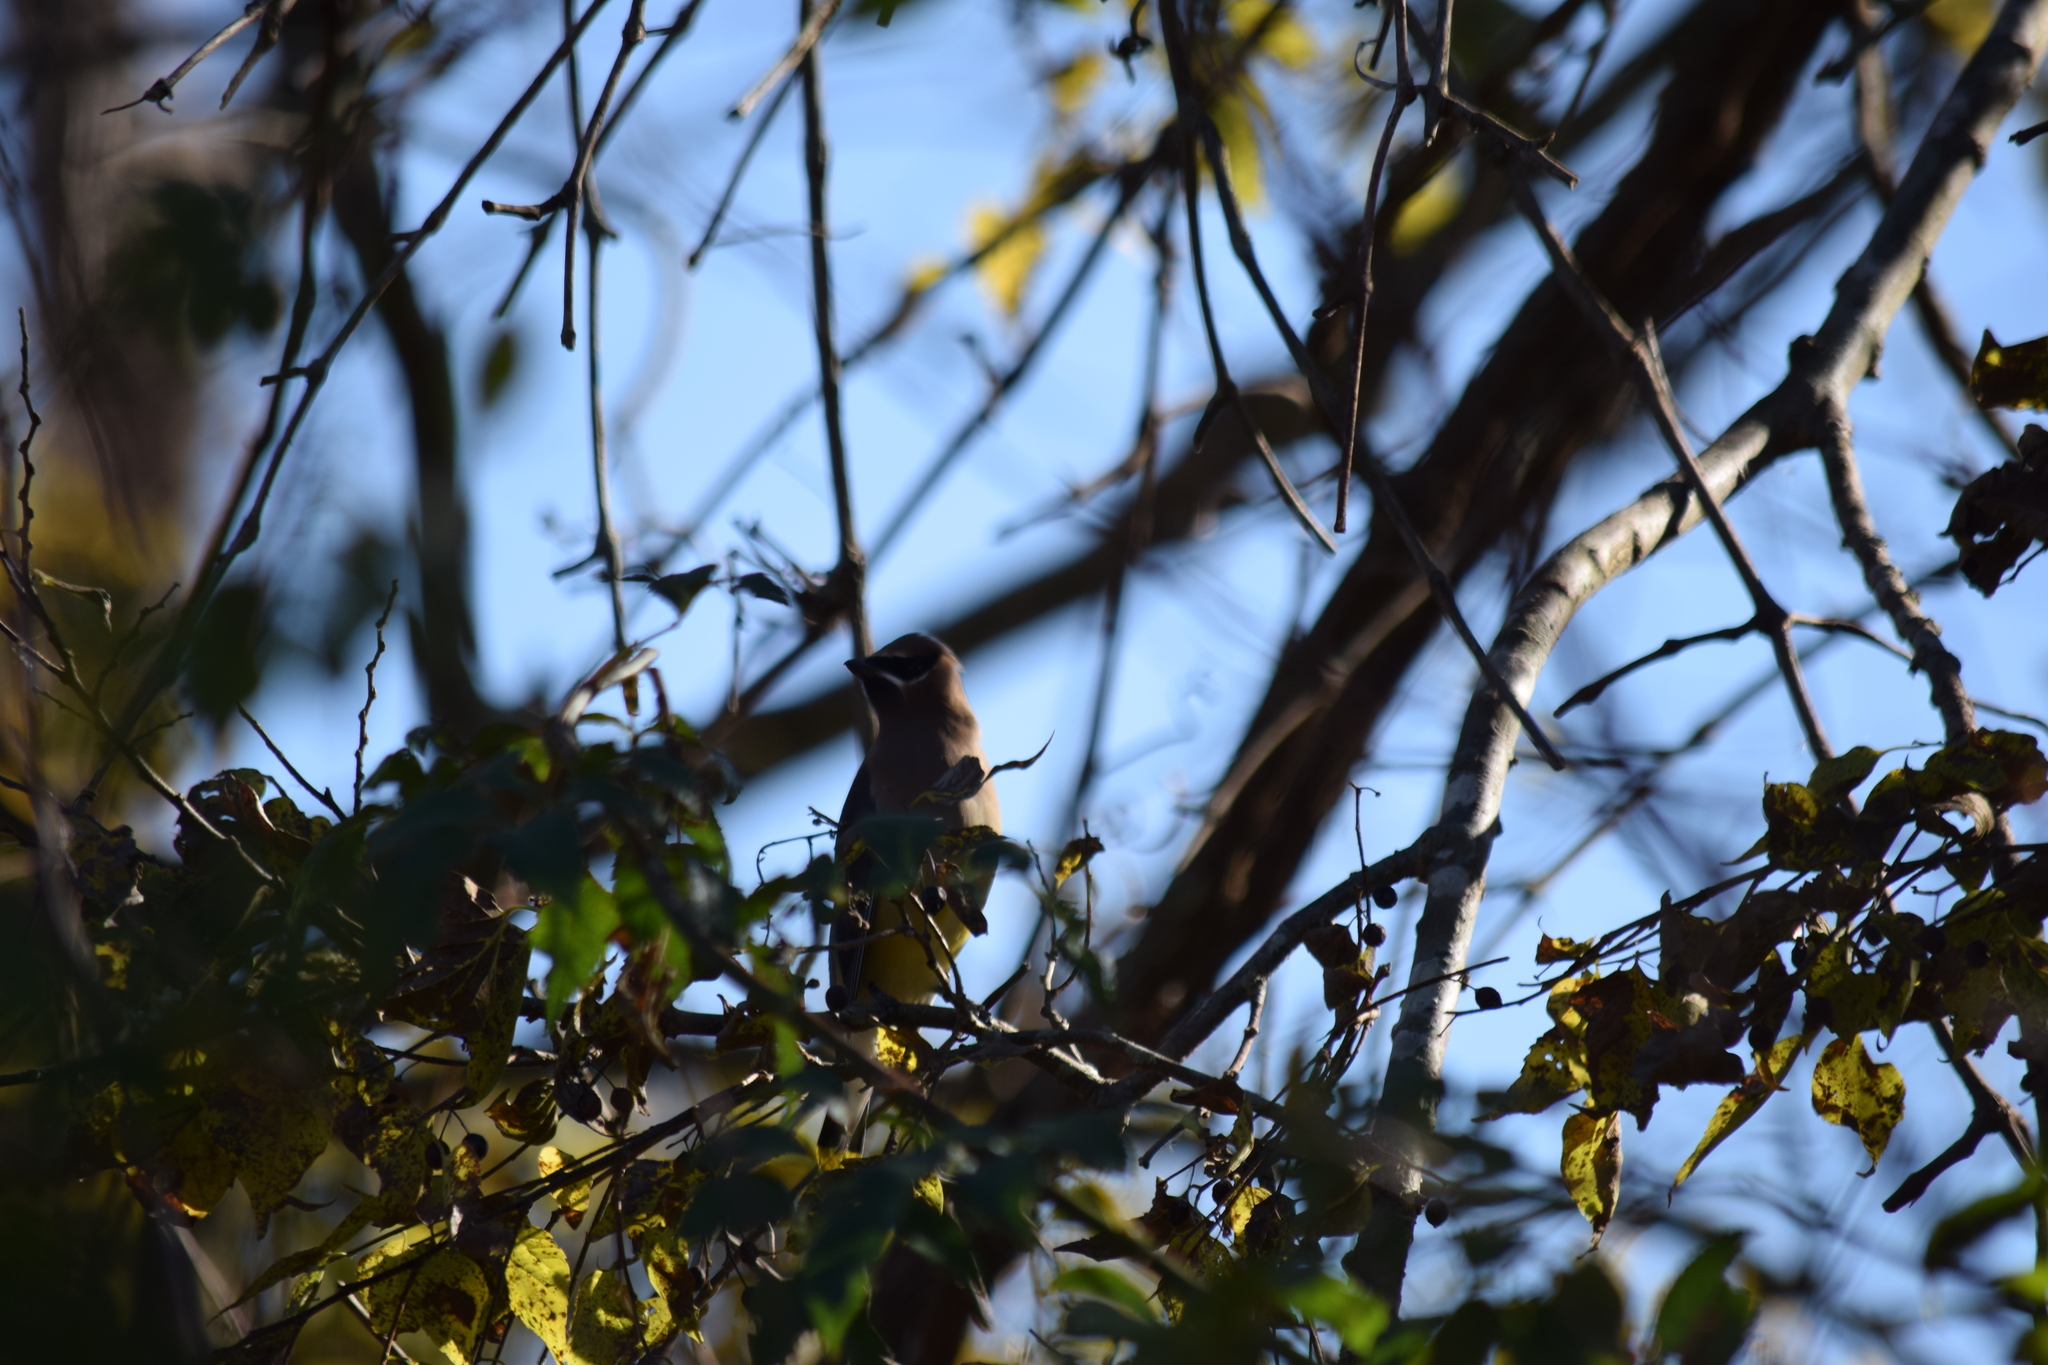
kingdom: Animalia
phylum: Chordata
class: Aves
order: Passeriformes
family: Bombycillidae
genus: Bombycilla
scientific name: Bombycilla cedrorum
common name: Cedar waxwing
